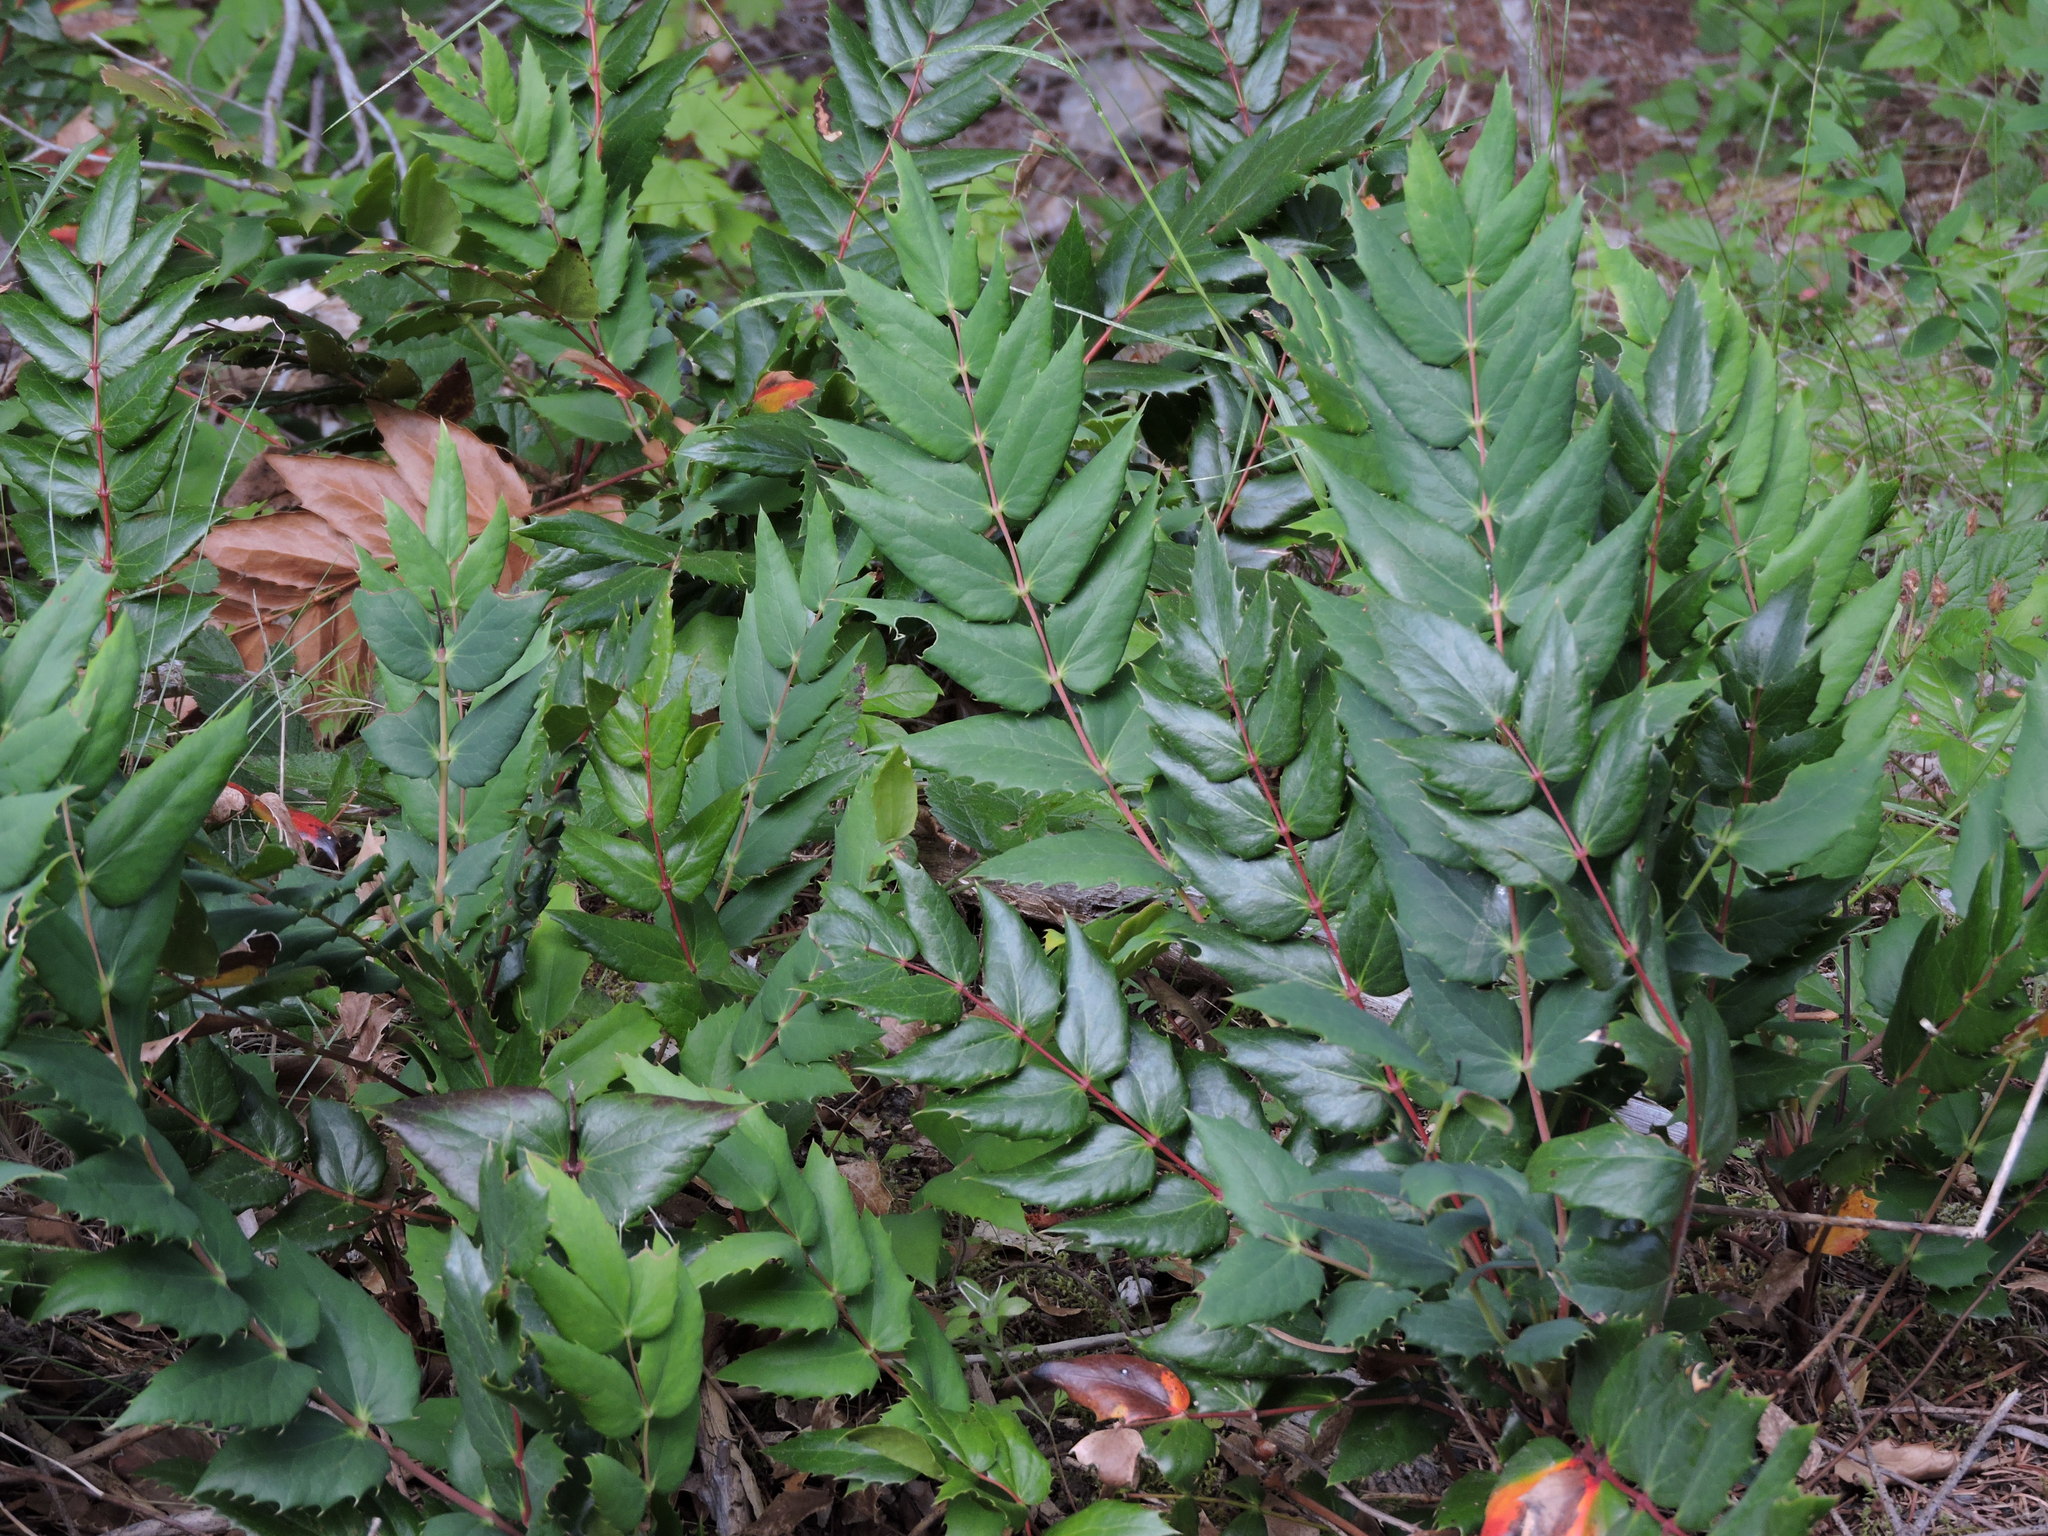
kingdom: Plantae
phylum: Tracheophyta
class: Magnoliopsida
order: Ranunculales
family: Berberidaceae
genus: Mahonia
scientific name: Mahonia nervosa
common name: Cascade oregon-grape
